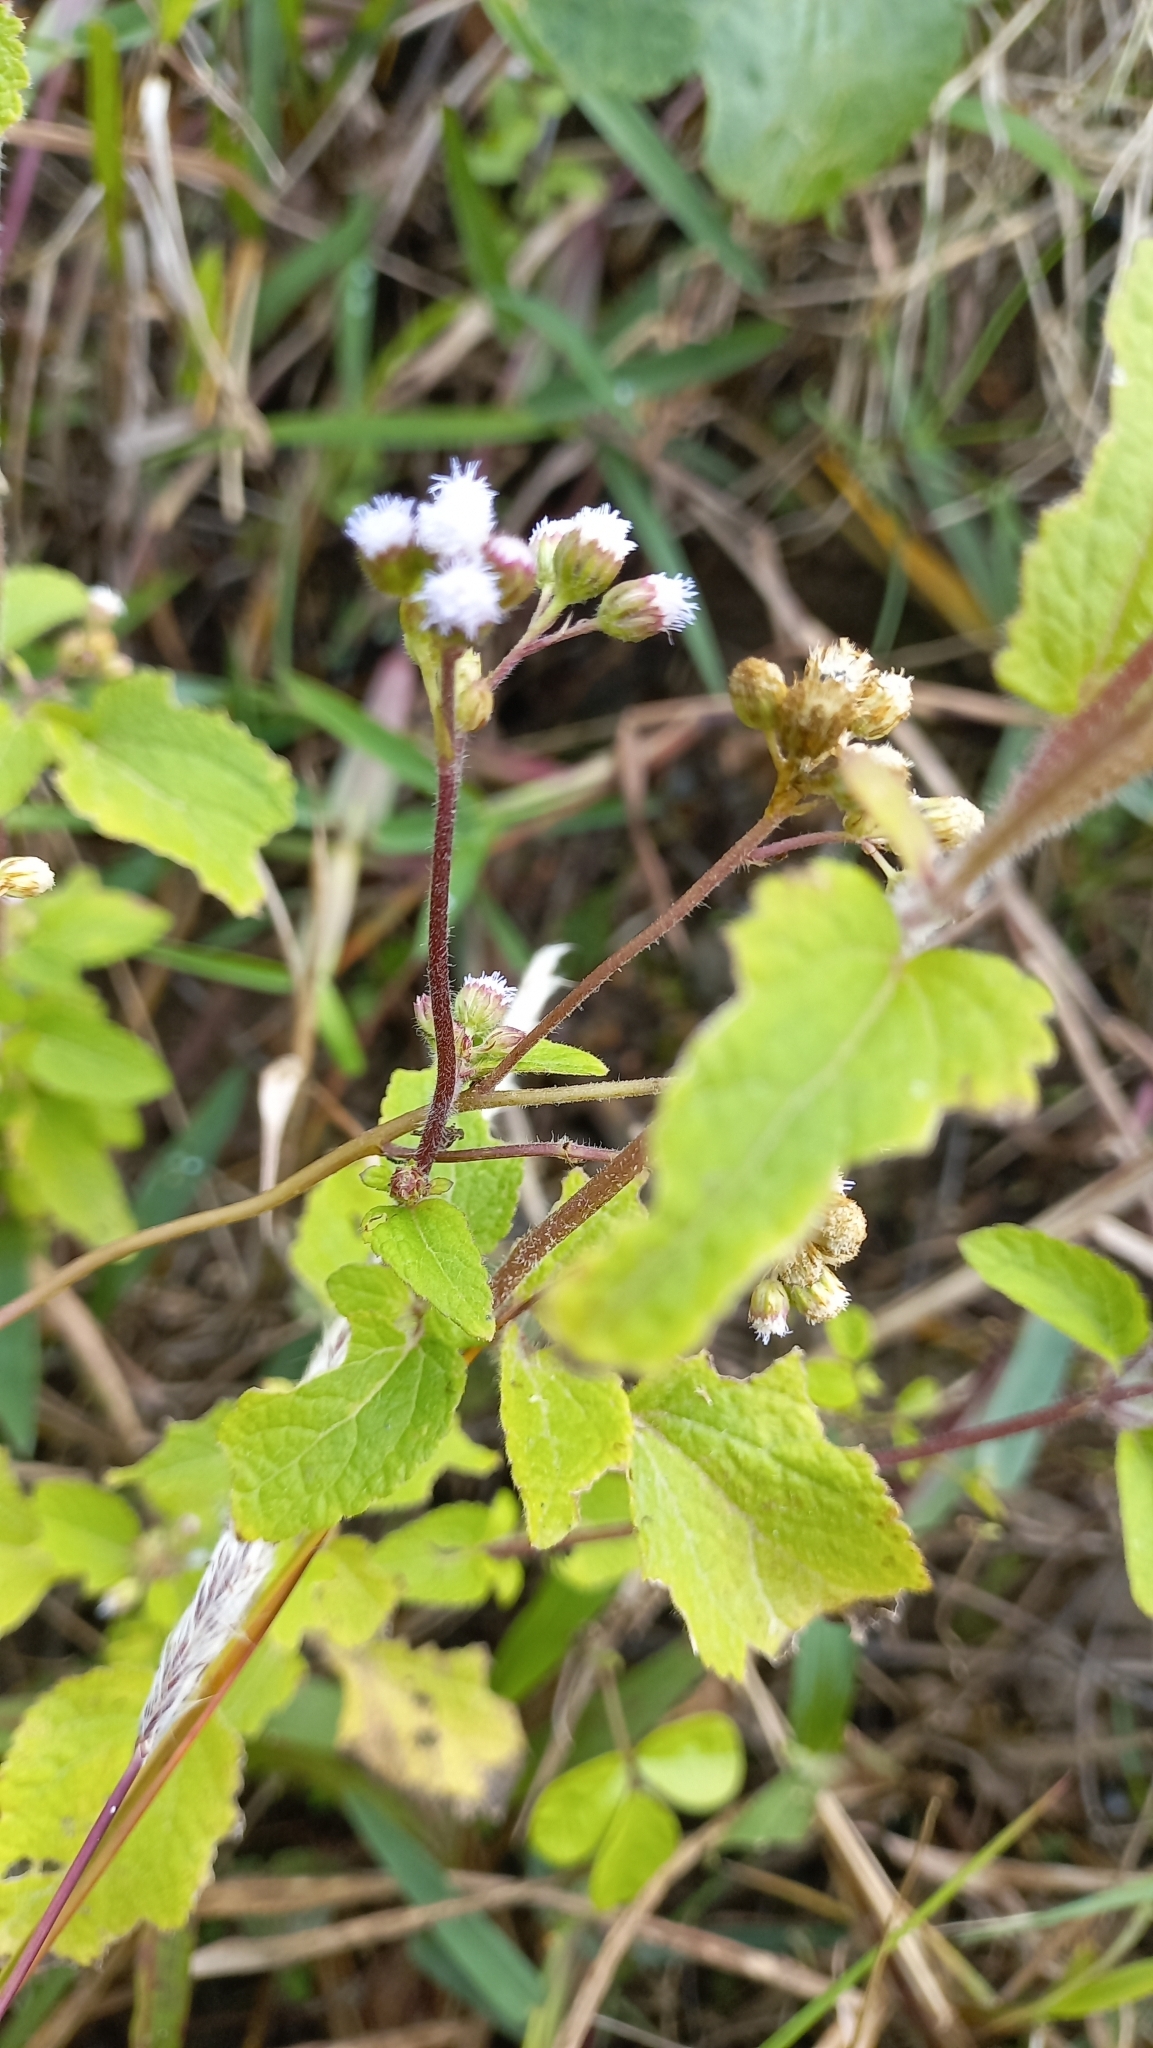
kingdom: Plantae
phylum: Tracheophyta
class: Magnoliopsida
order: Asterales
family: Asteraceae
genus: Ageratum
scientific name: Ageratum conyzoides
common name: Tropical whiteweed
